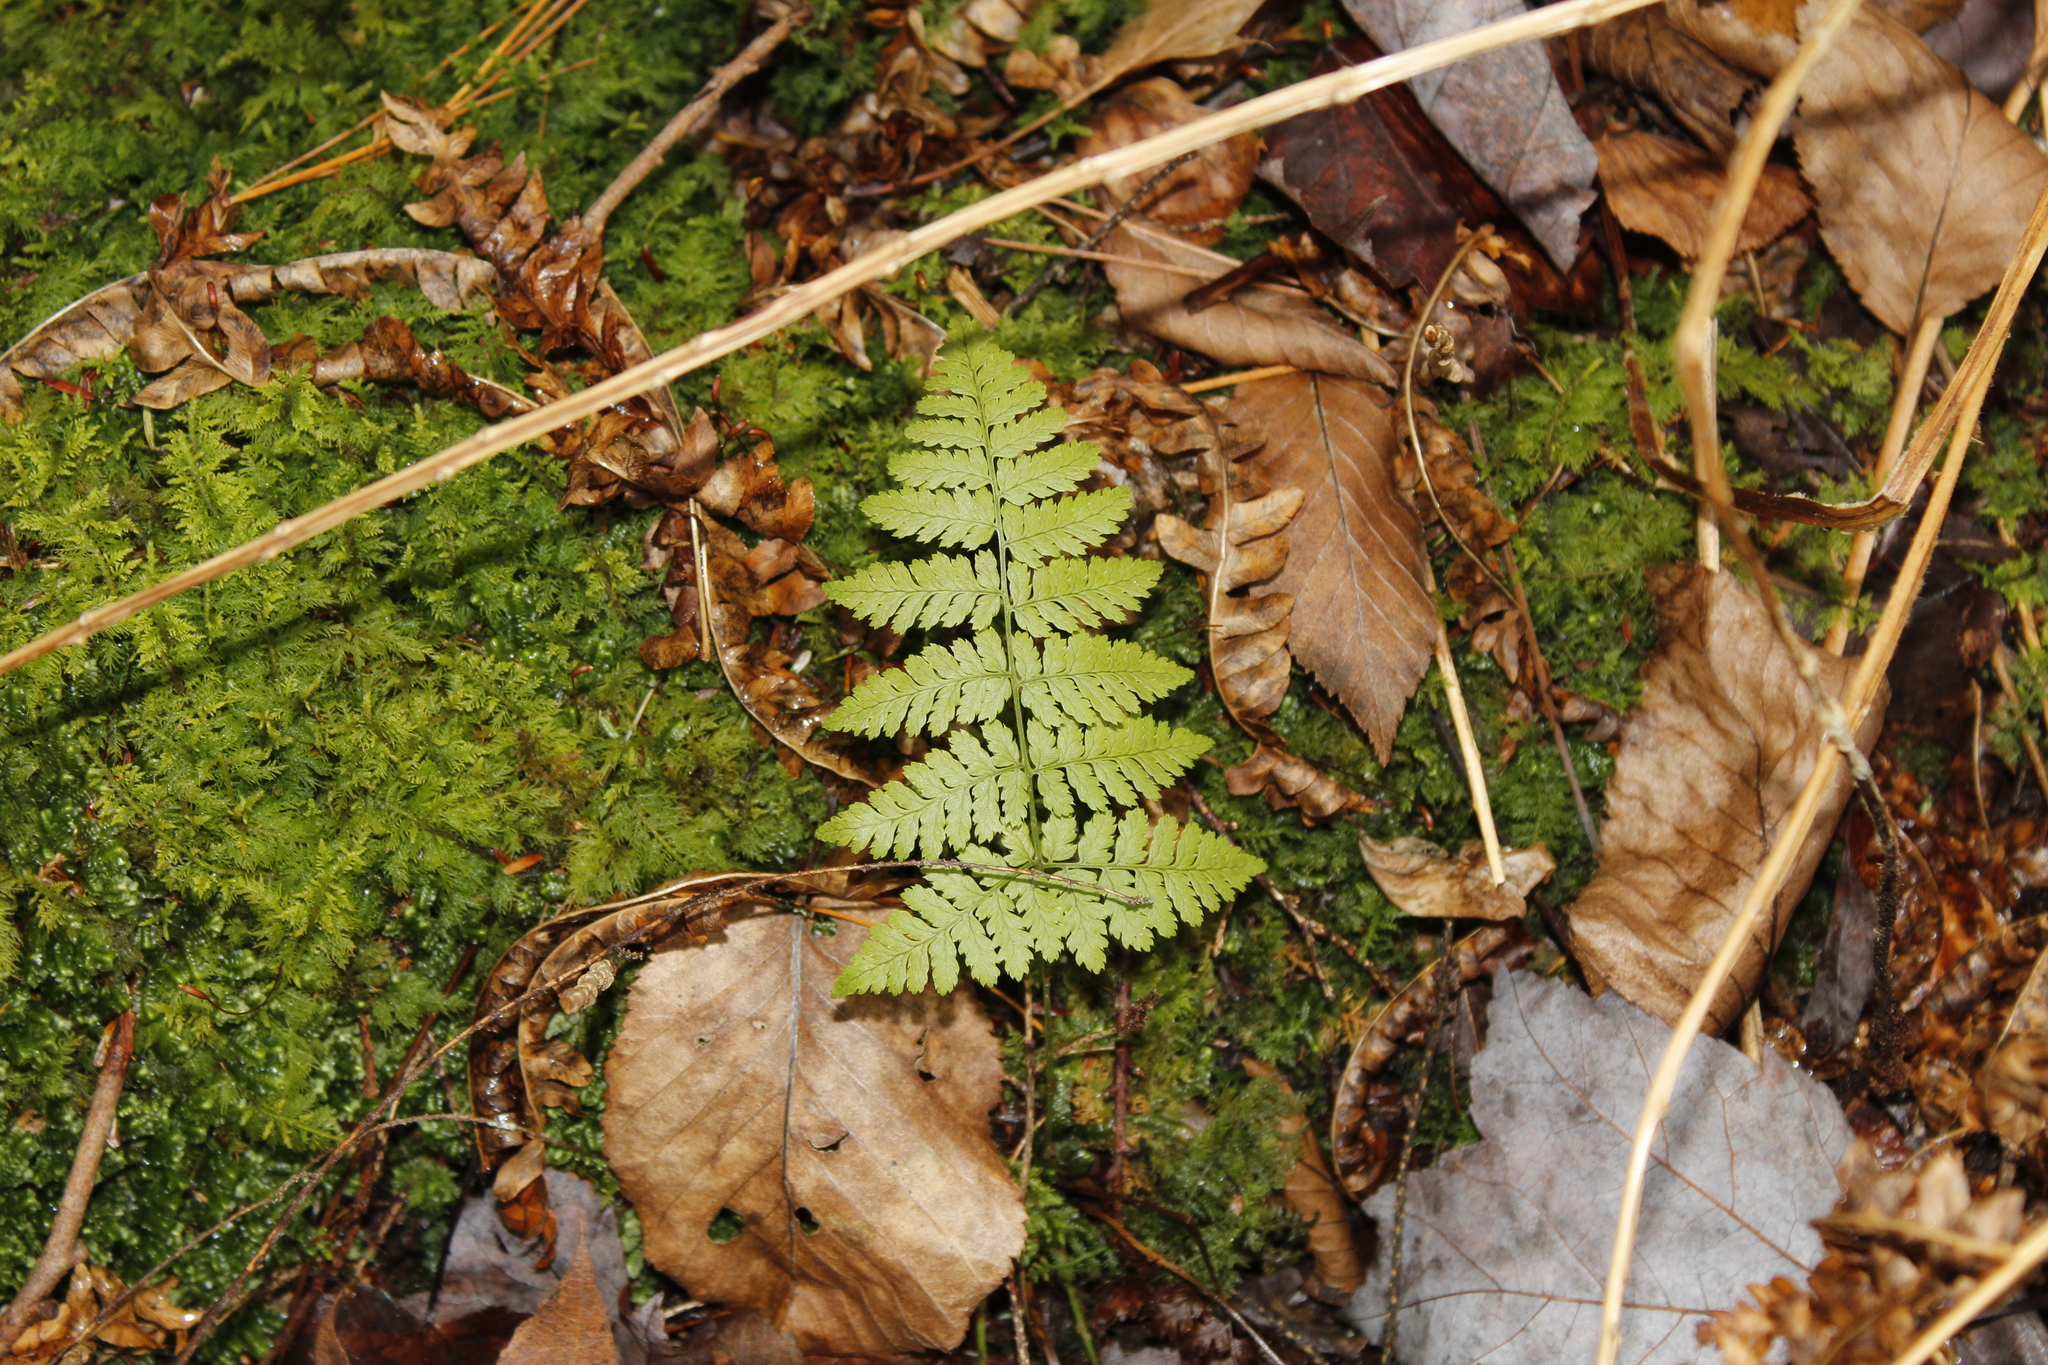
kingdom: Plantae
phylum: Tracheophyta
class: Polypodiopsida
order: Polypodiales
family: Dryopteridaceae
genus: Dryopteris
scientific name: Dryopteris intermedia
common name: Evergreen wood fern
